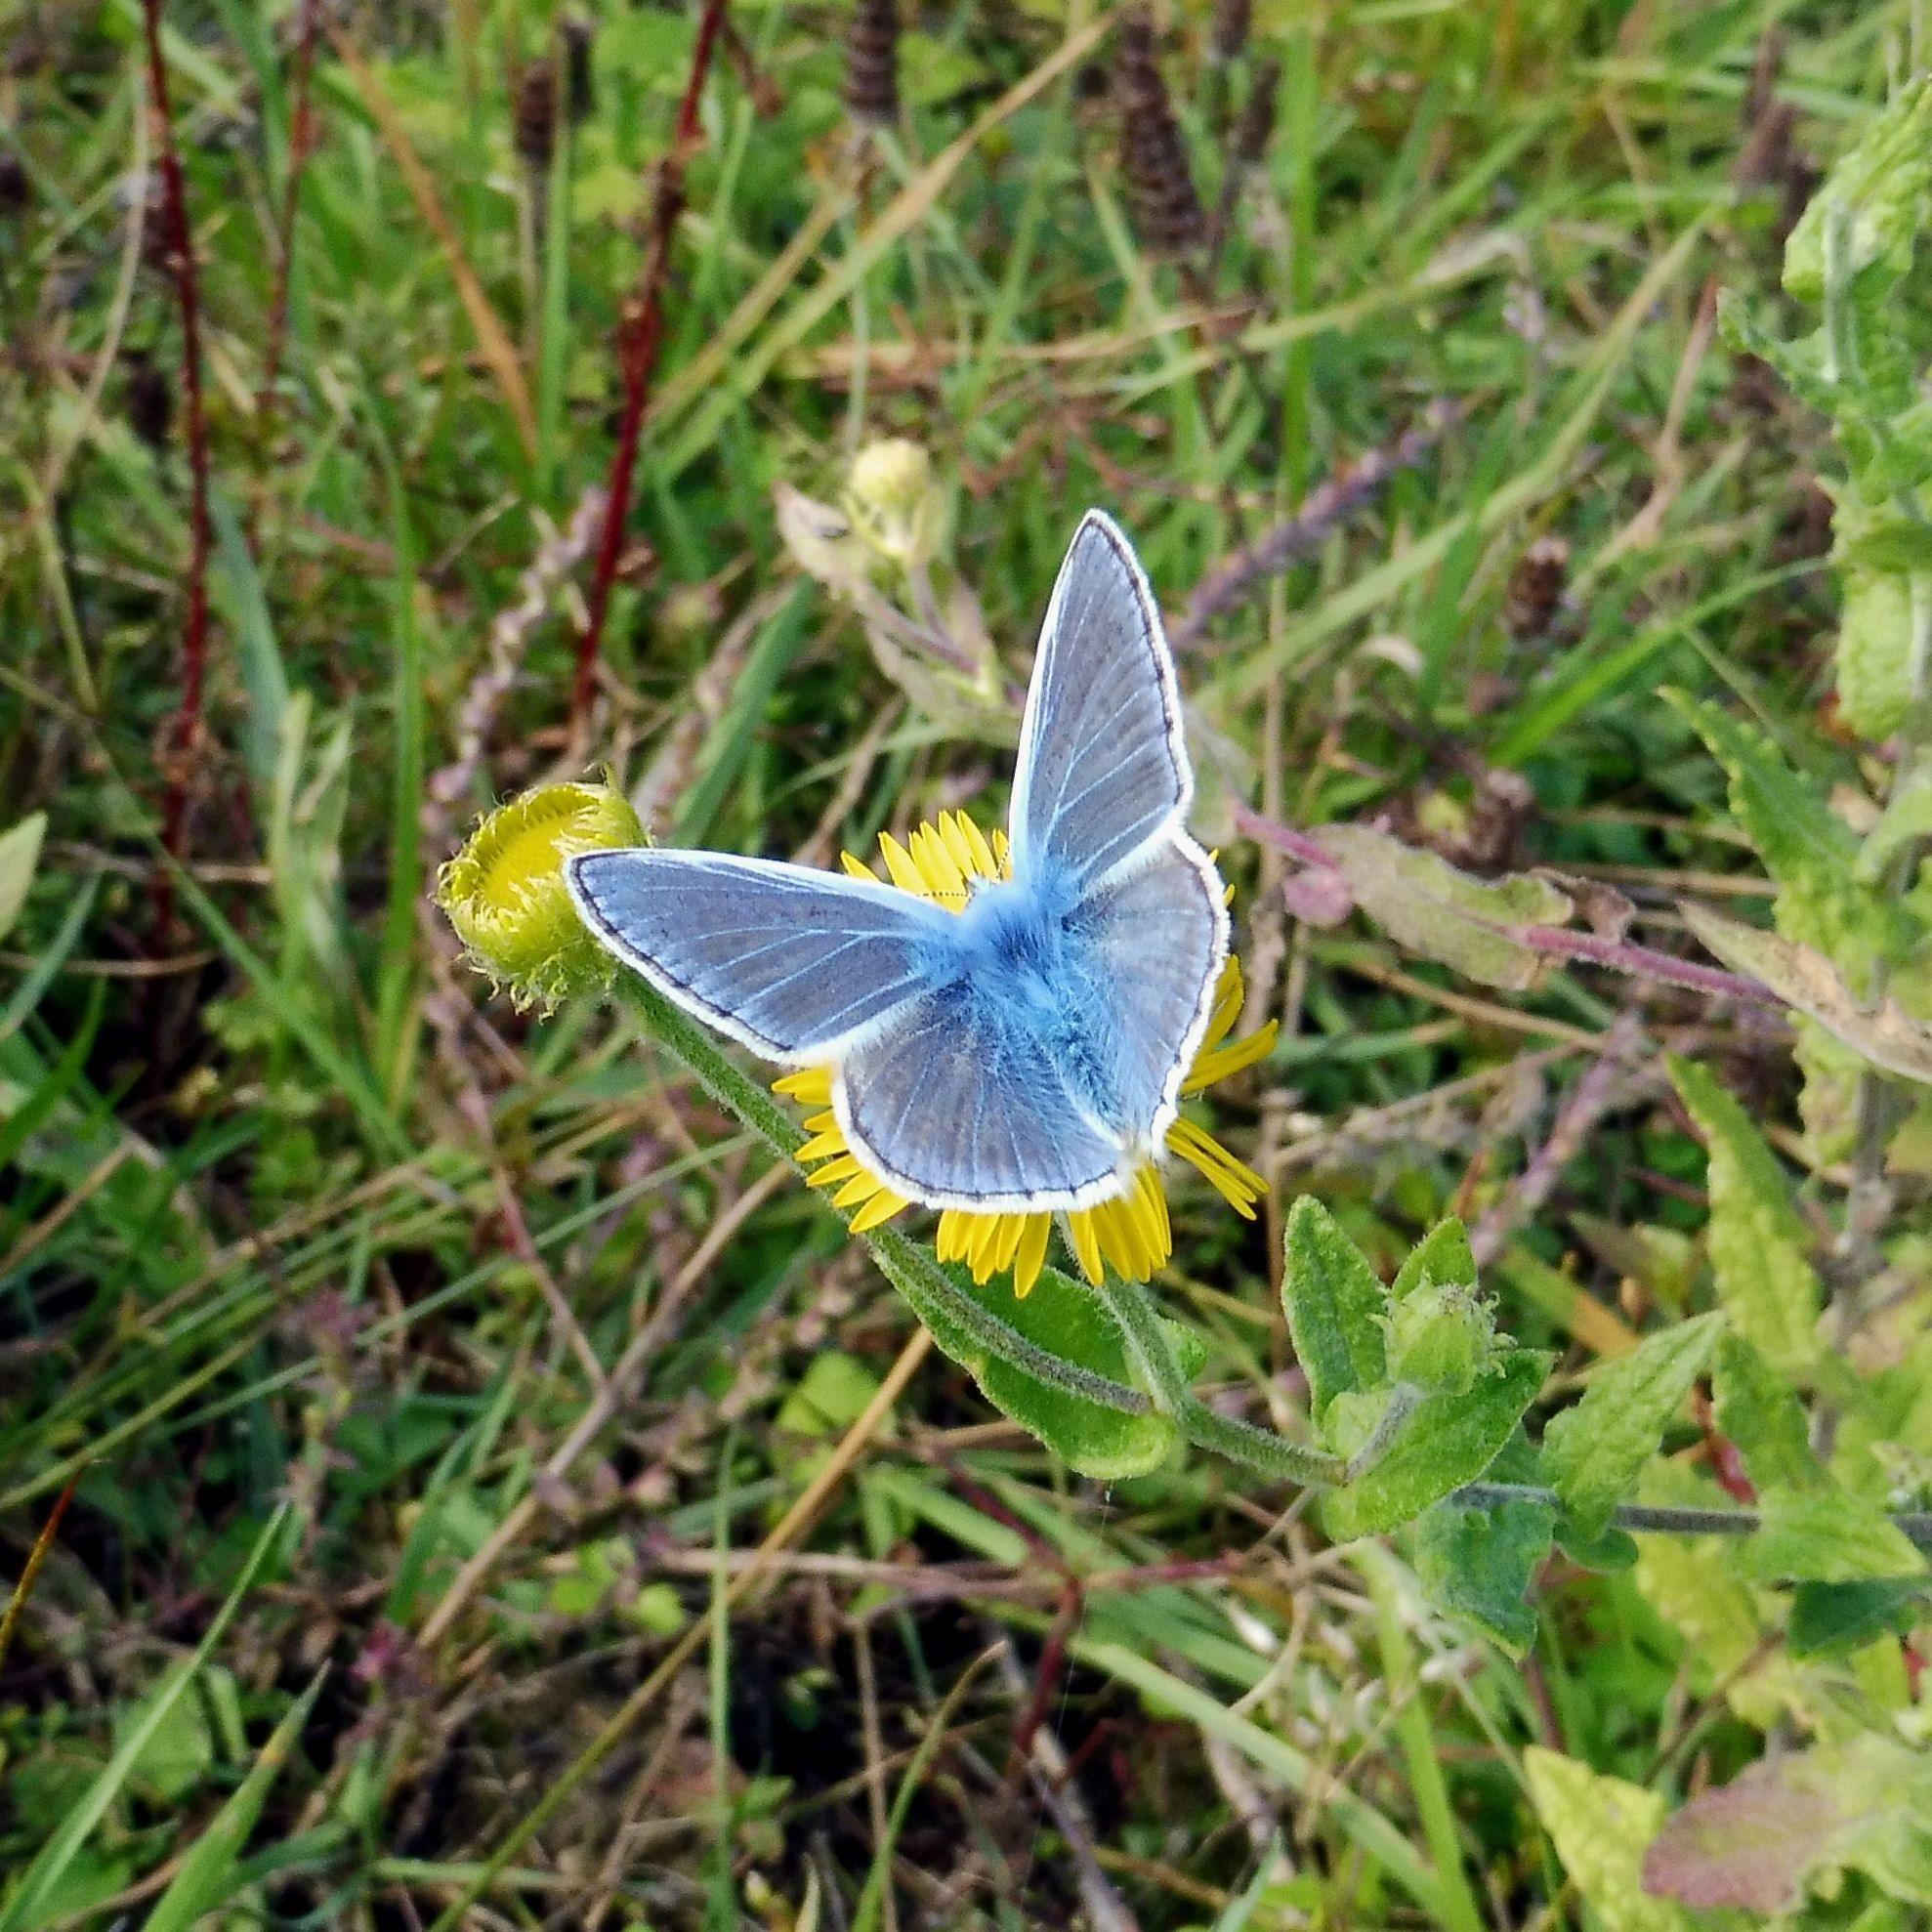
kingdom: Animalia
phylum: Arthropoda
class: Insecta
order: Lepidoptera
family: Lycaenidae
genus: Polyommatus
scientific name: Polyommatus icarus
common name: Common blue
